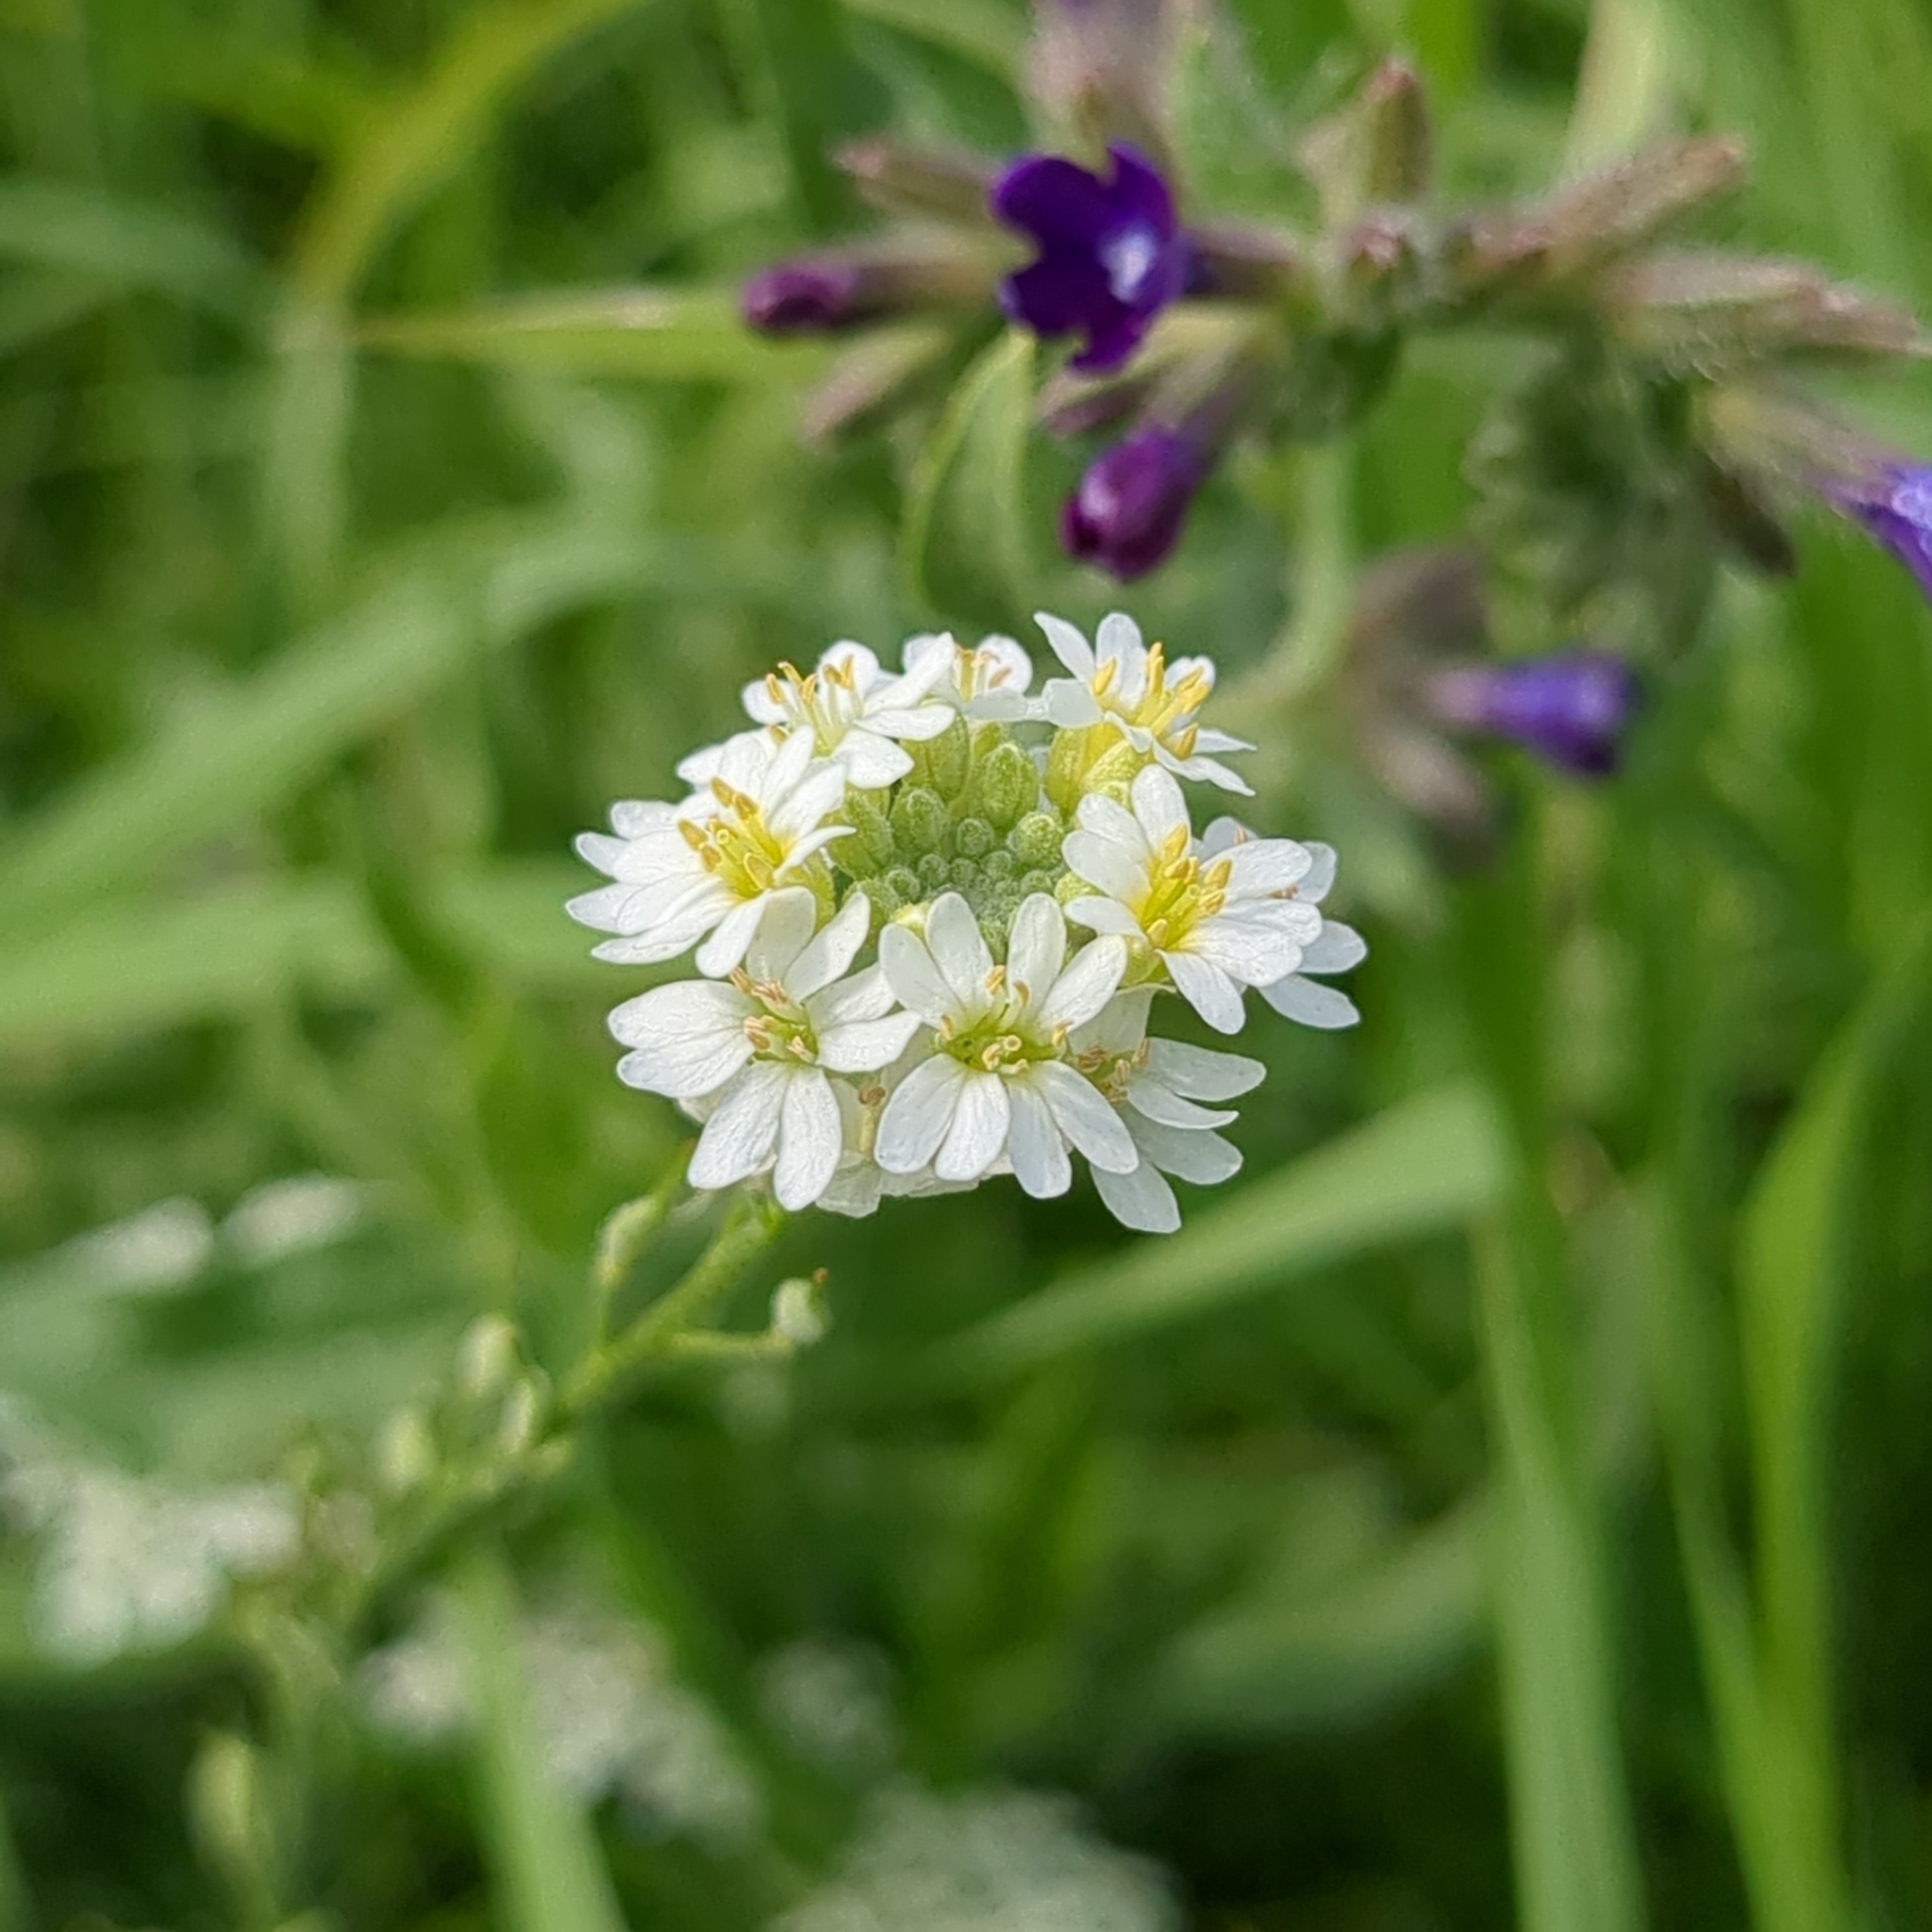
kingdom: Plantae
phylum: Tracheophyta
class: Magnoliopsida
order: Brassicales
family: Brassicaceae
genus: Berteroa
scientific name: Berteroa incana
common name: Hoary alison
